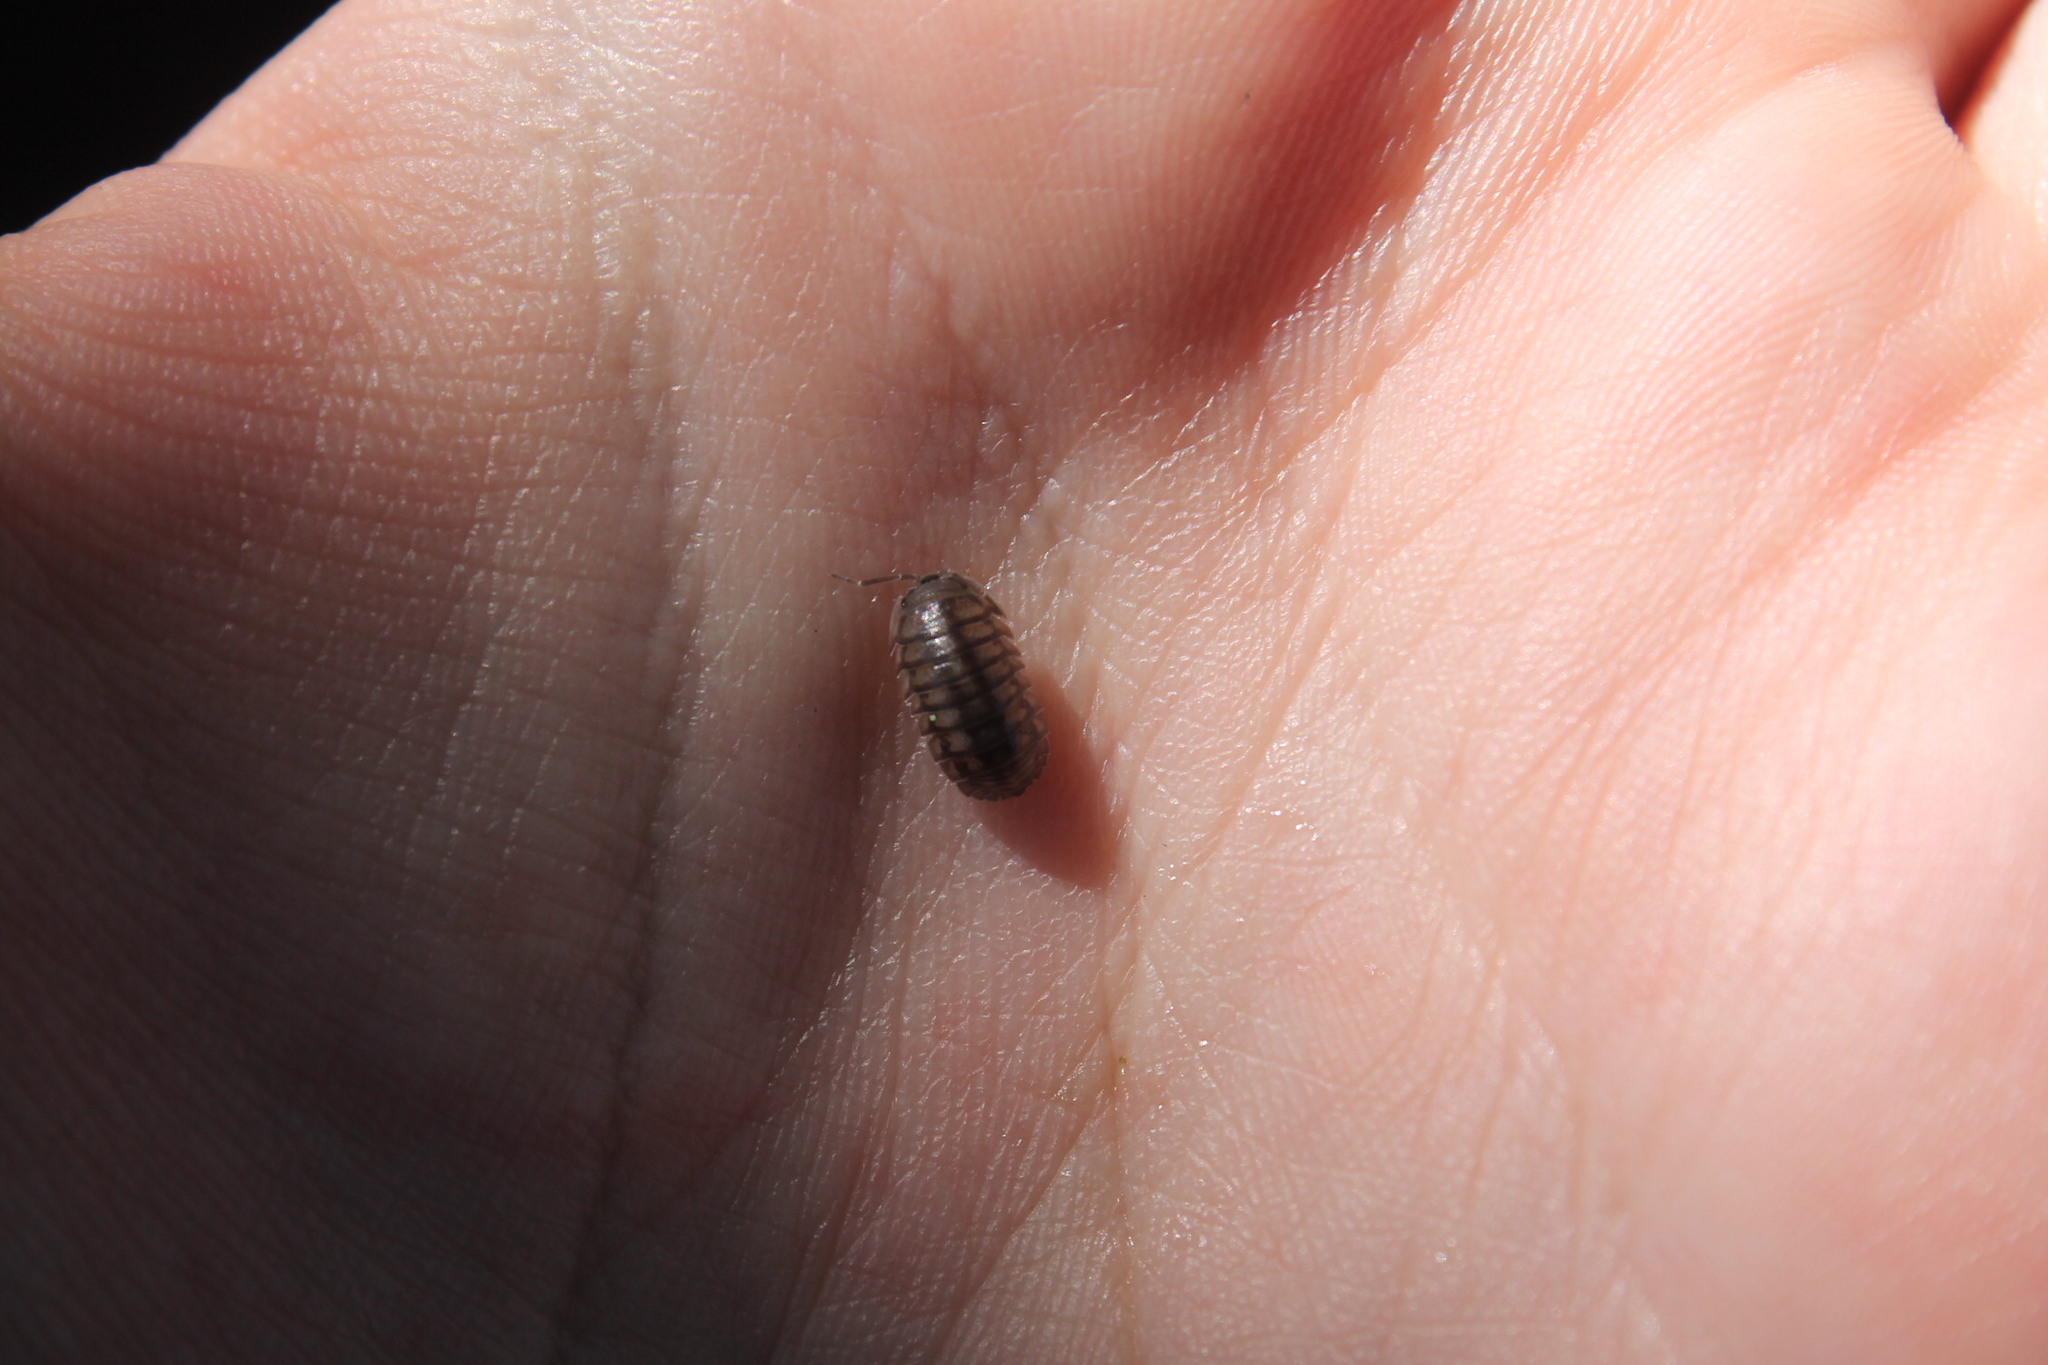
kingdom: Animalia
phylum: Arthropoda
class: Malacostraca
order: Isopoda
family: Armadillidiidae
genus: Armadillidium
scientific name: Armadillidium nasatum
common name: Isopod
